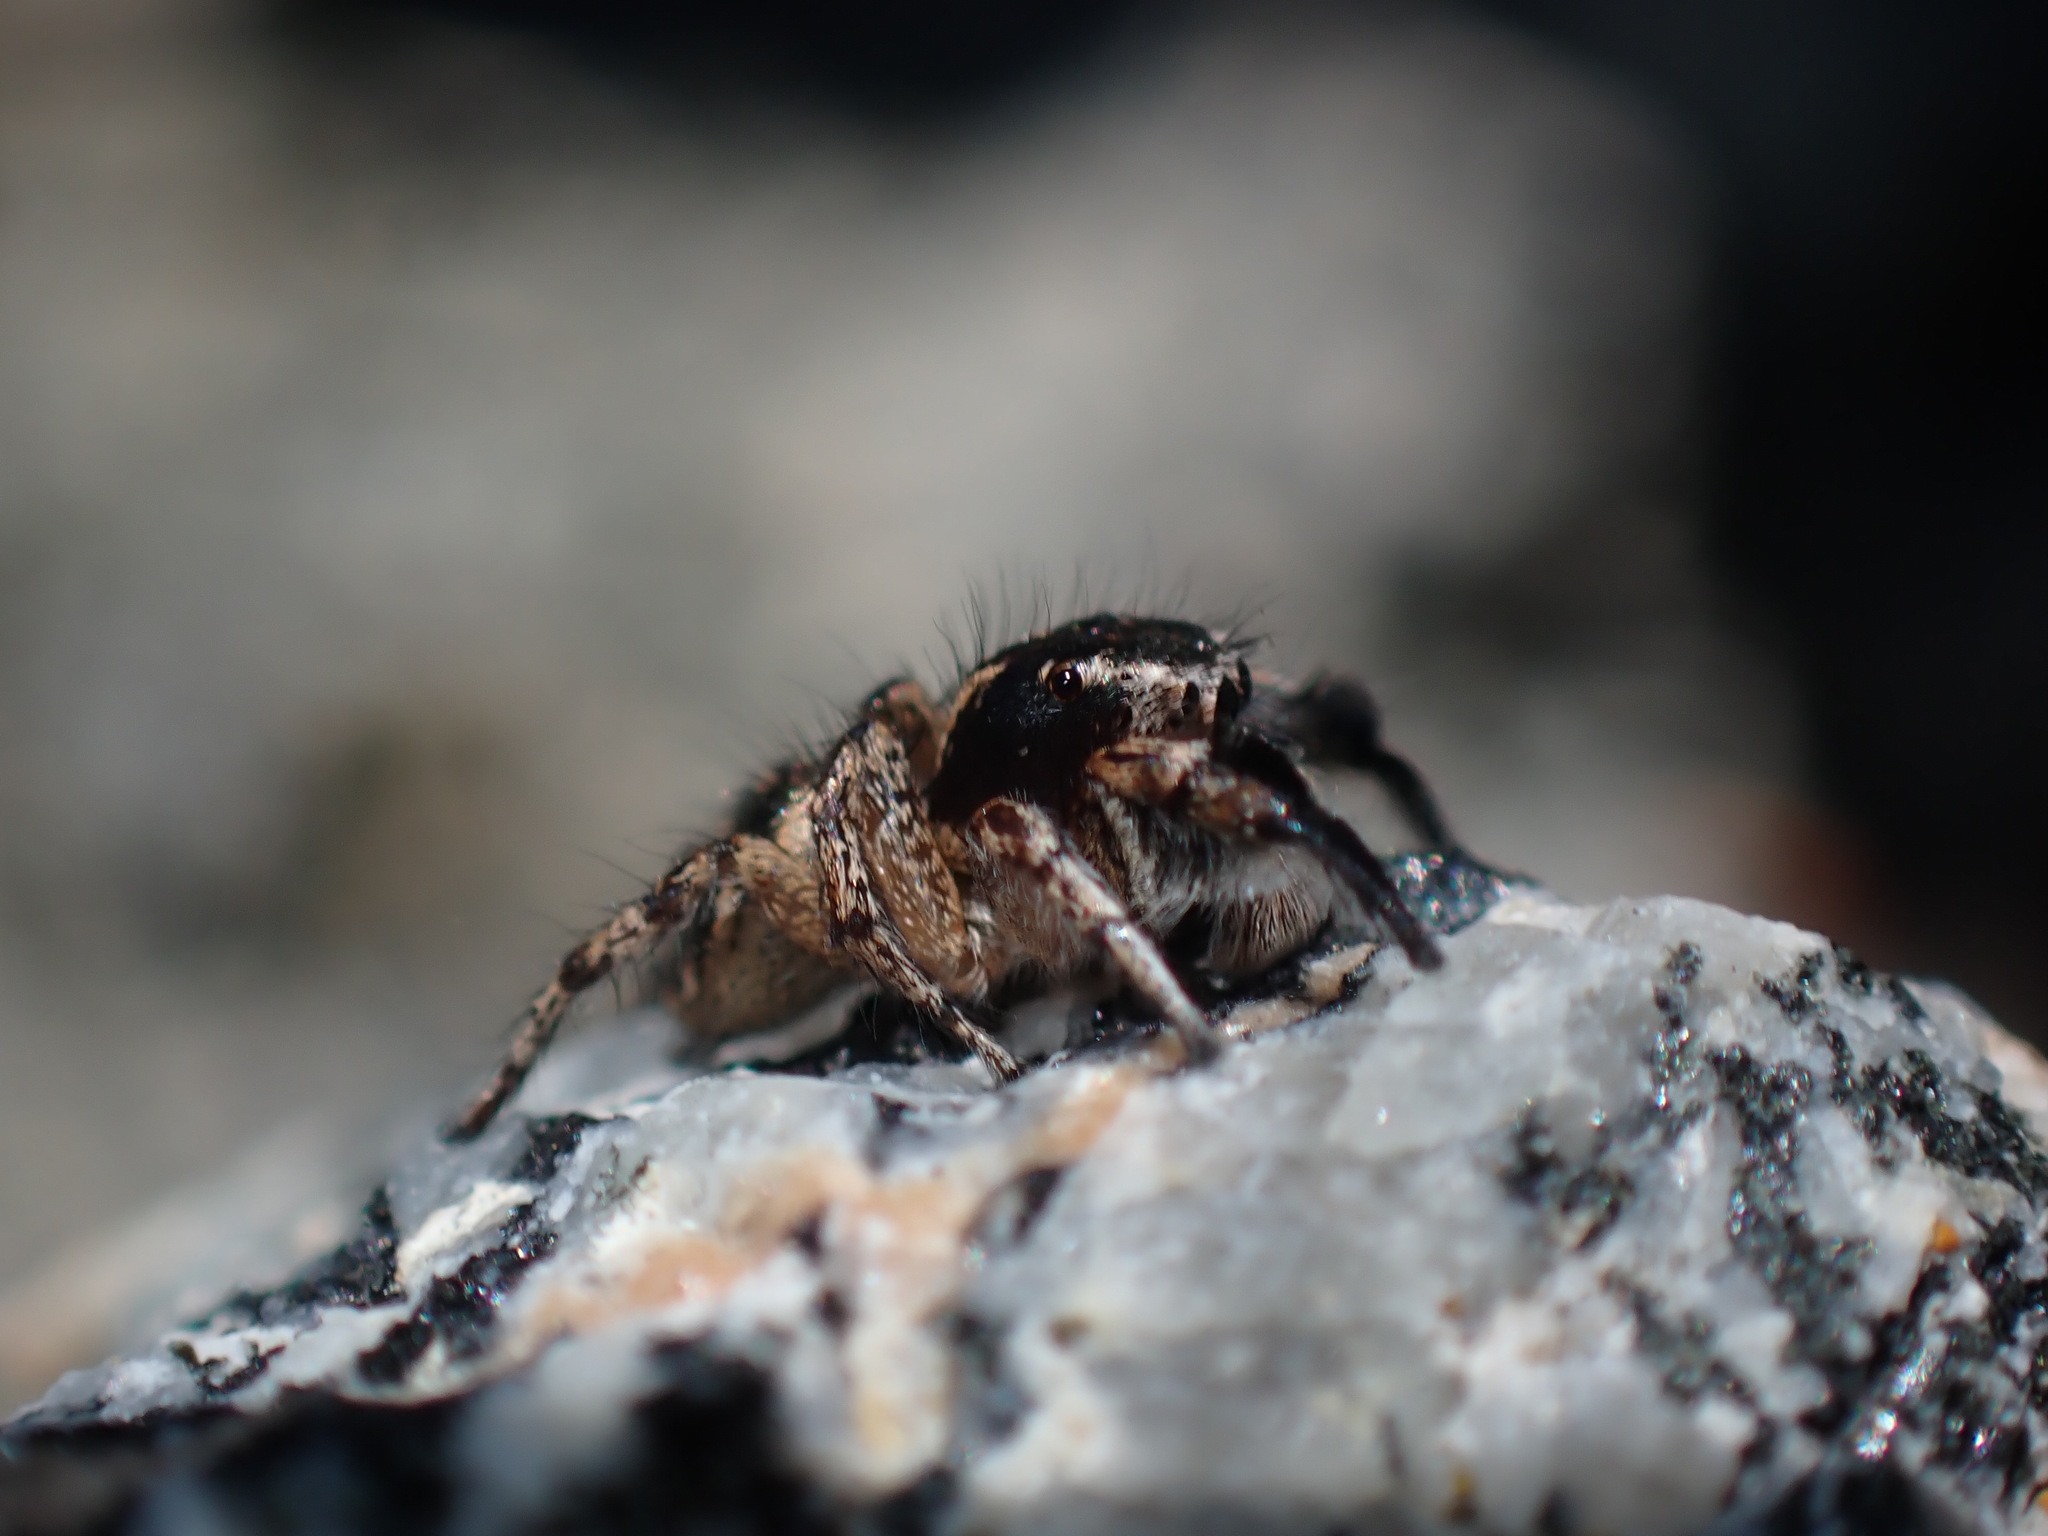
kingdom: Animalia
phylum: Arthropoda
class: Arachnida
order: Araneae
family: Salticidae
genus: Habronattus
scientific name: Habronattus hirsutus
